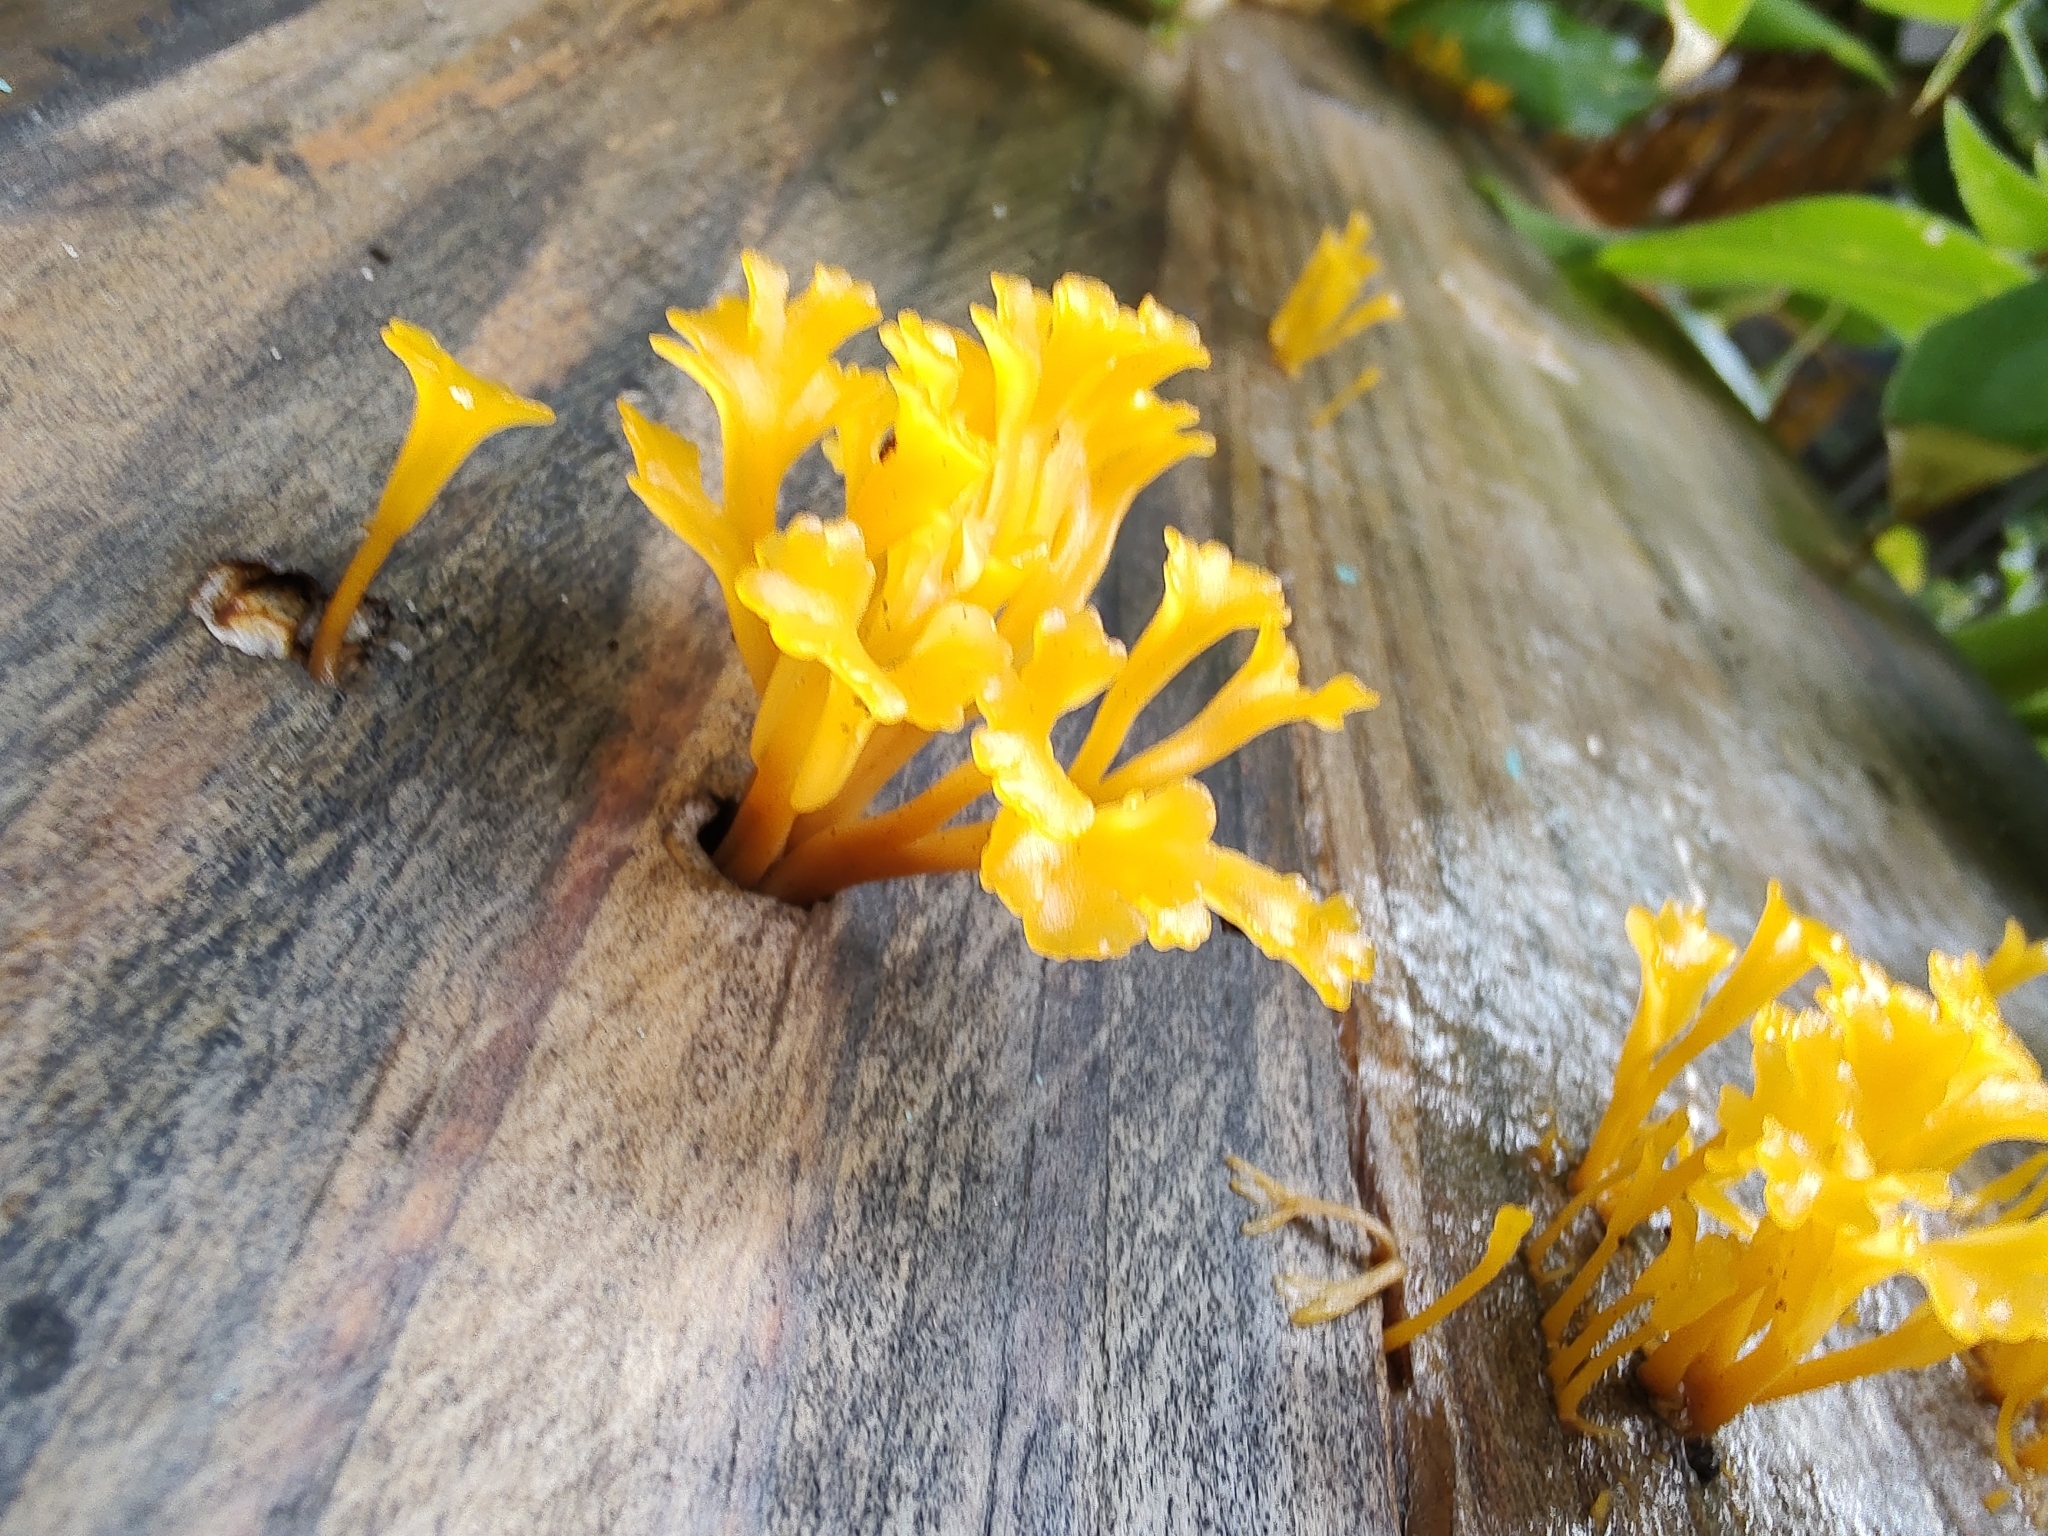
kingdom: Fungi
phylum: Basidiomycota
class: Dacrymycetes
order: Dacrymycetales
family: Dacrymycetaceae
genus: Dacrymyces
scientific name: Dacrymyces spathularius
